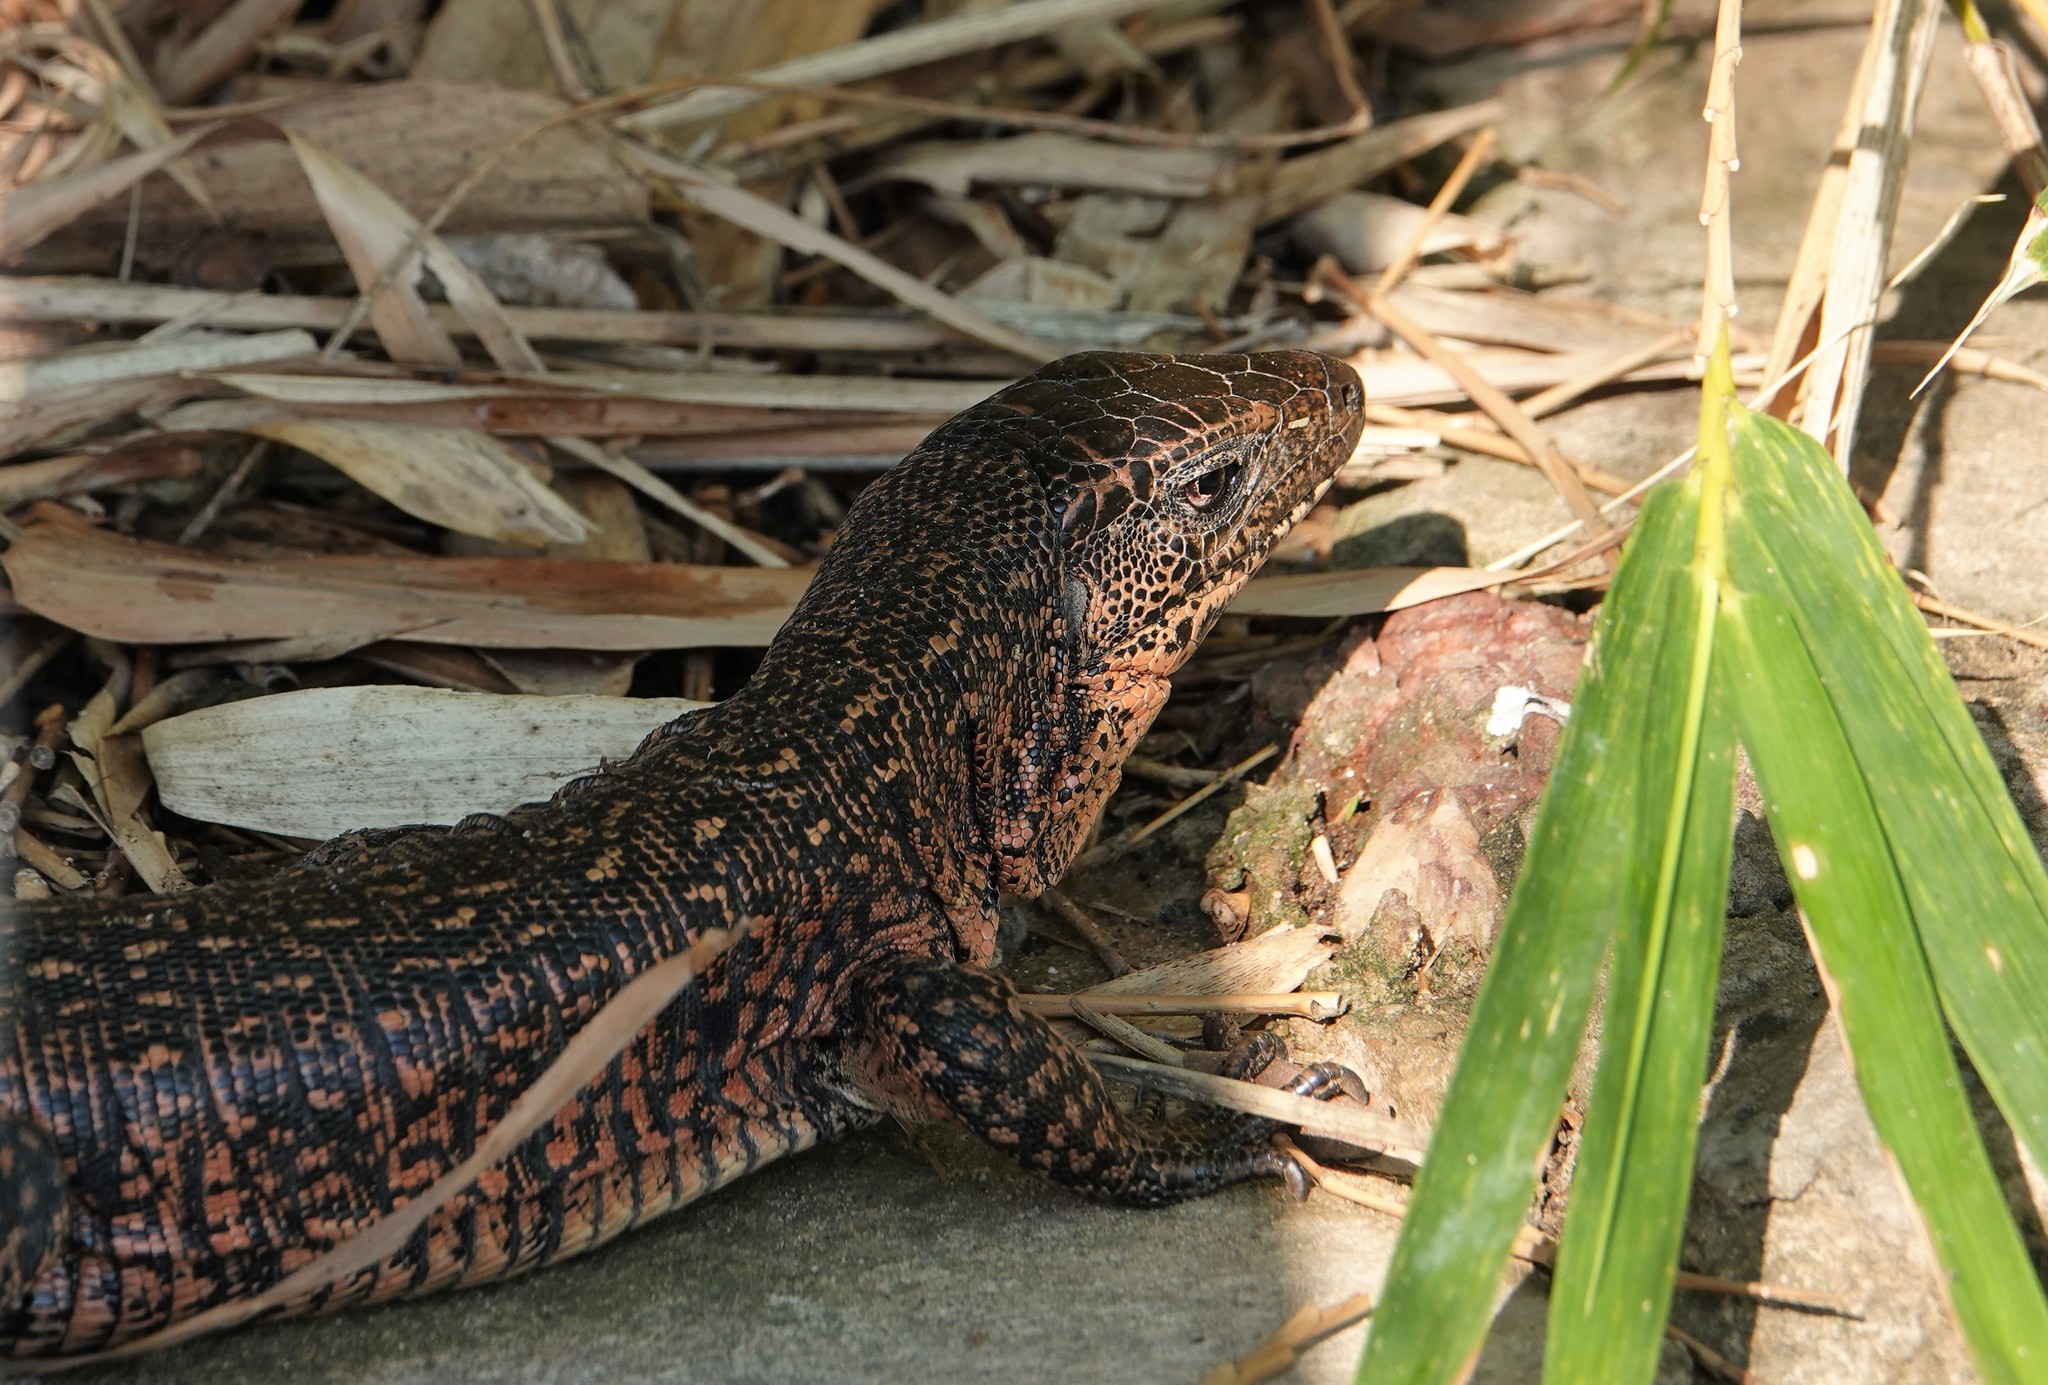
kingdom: Animalia
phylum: Chordata
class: Squamata
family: Teiidae
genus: Tupinambis
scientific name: Tupinambis teguixin
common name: Black tegu
